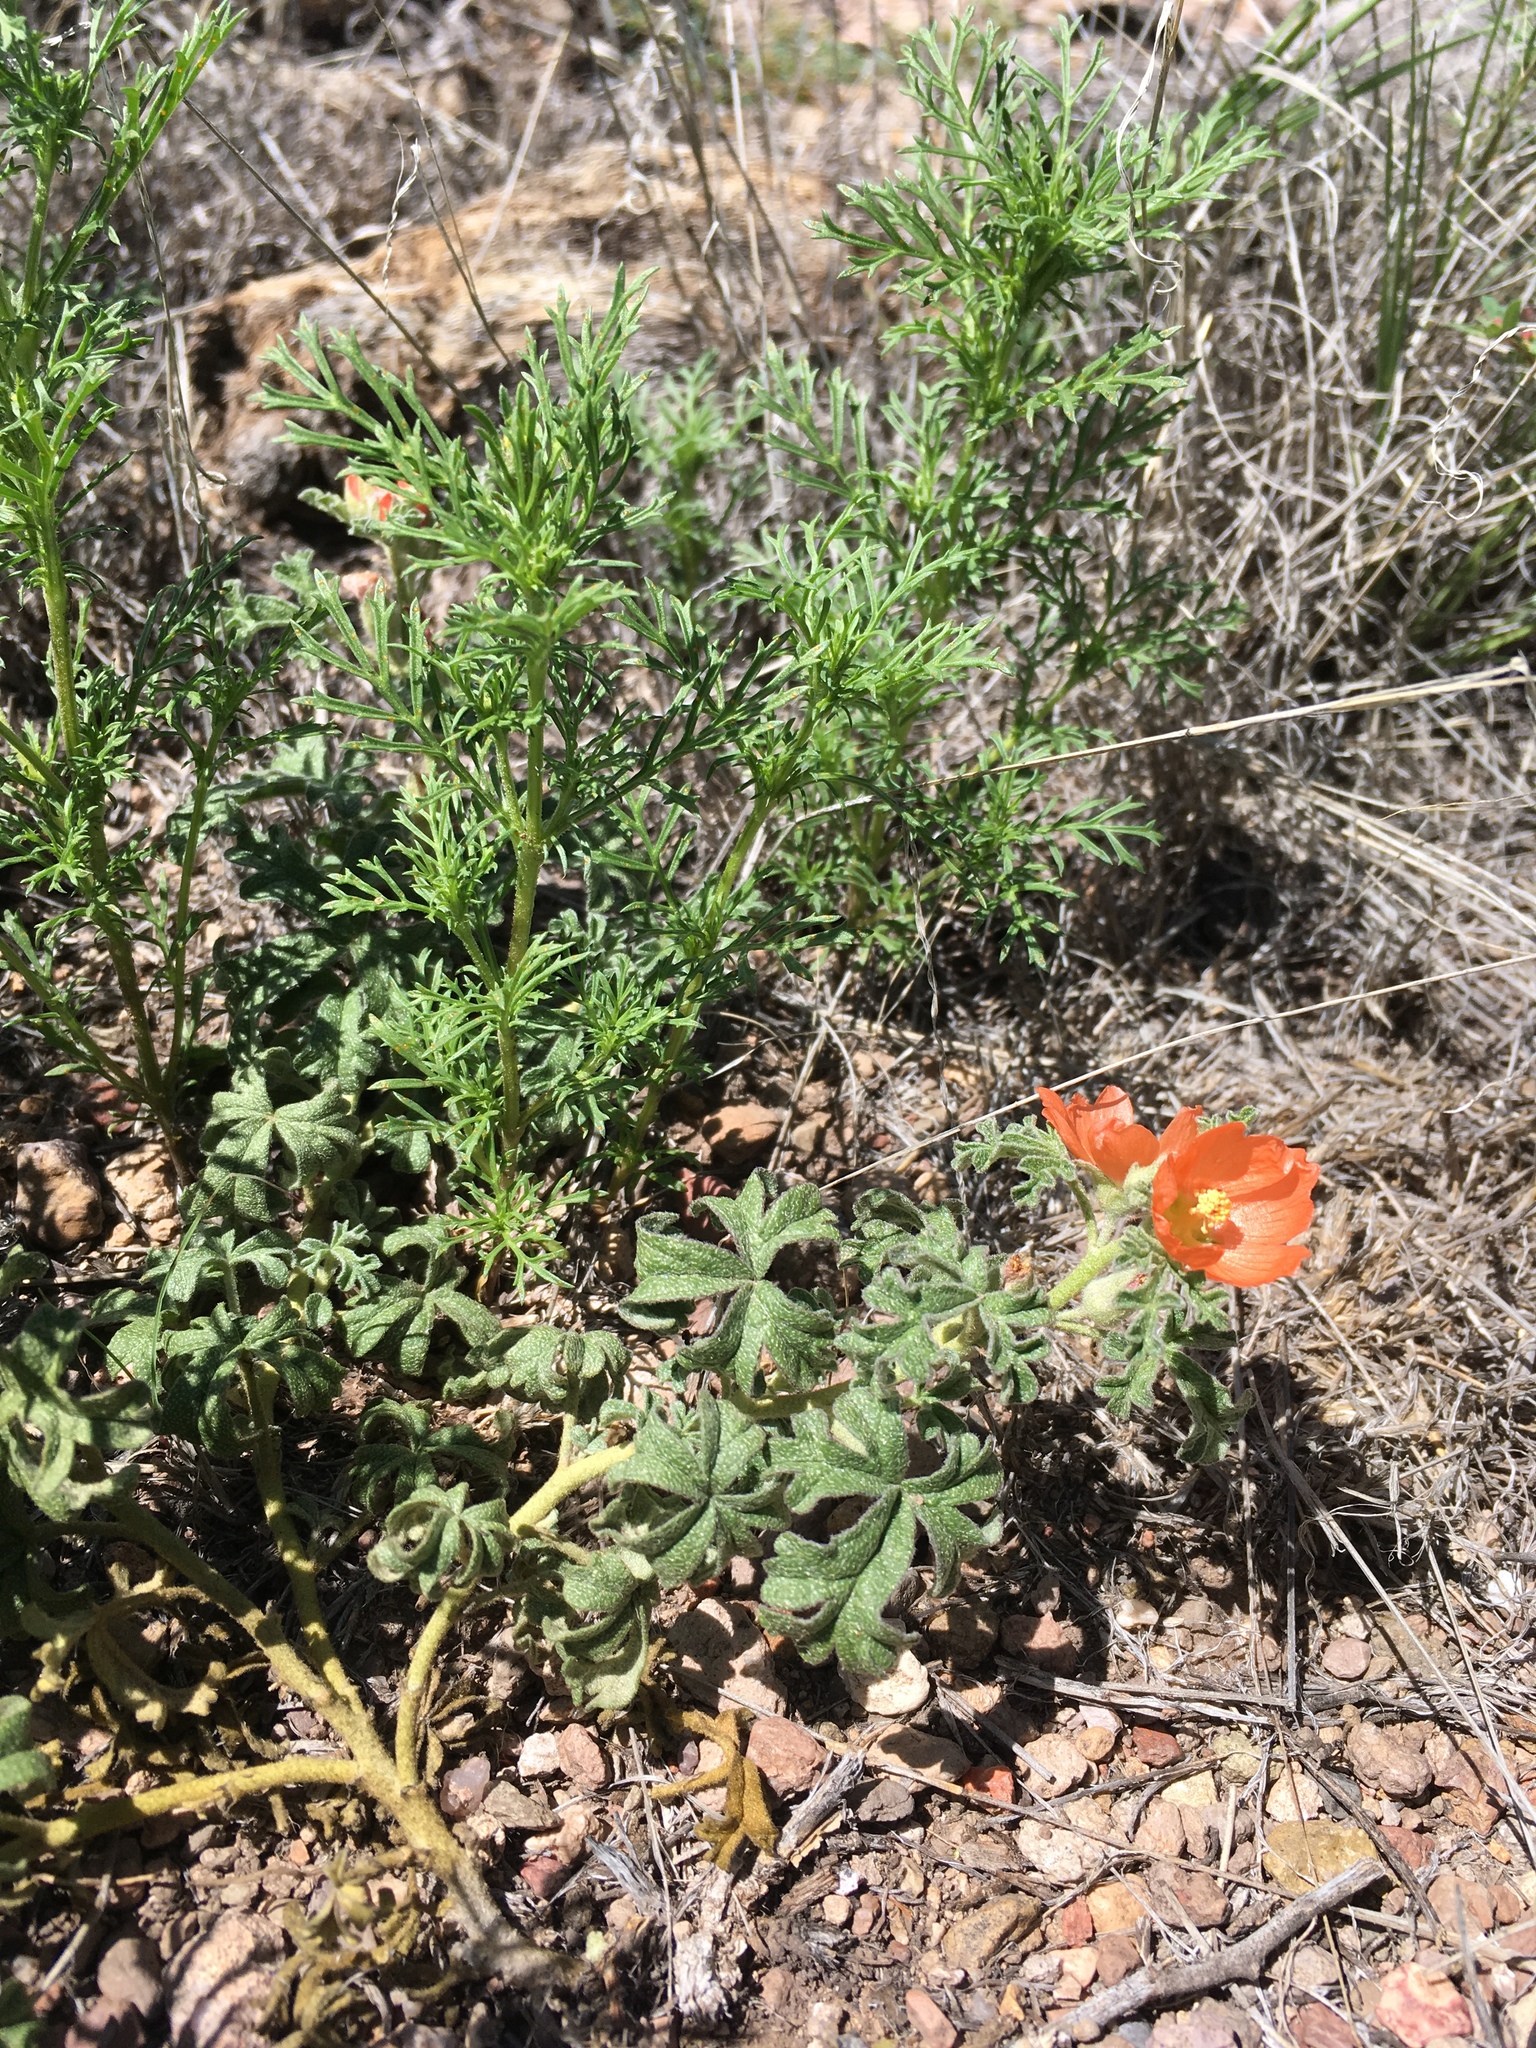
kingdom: Plantae
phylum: Tracheophyta
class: Magnoliopsida
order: Malvales
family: Malvaceae
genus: Sphaeralcea
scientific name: Sphaeralcea coccinea
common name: Moss-rose
